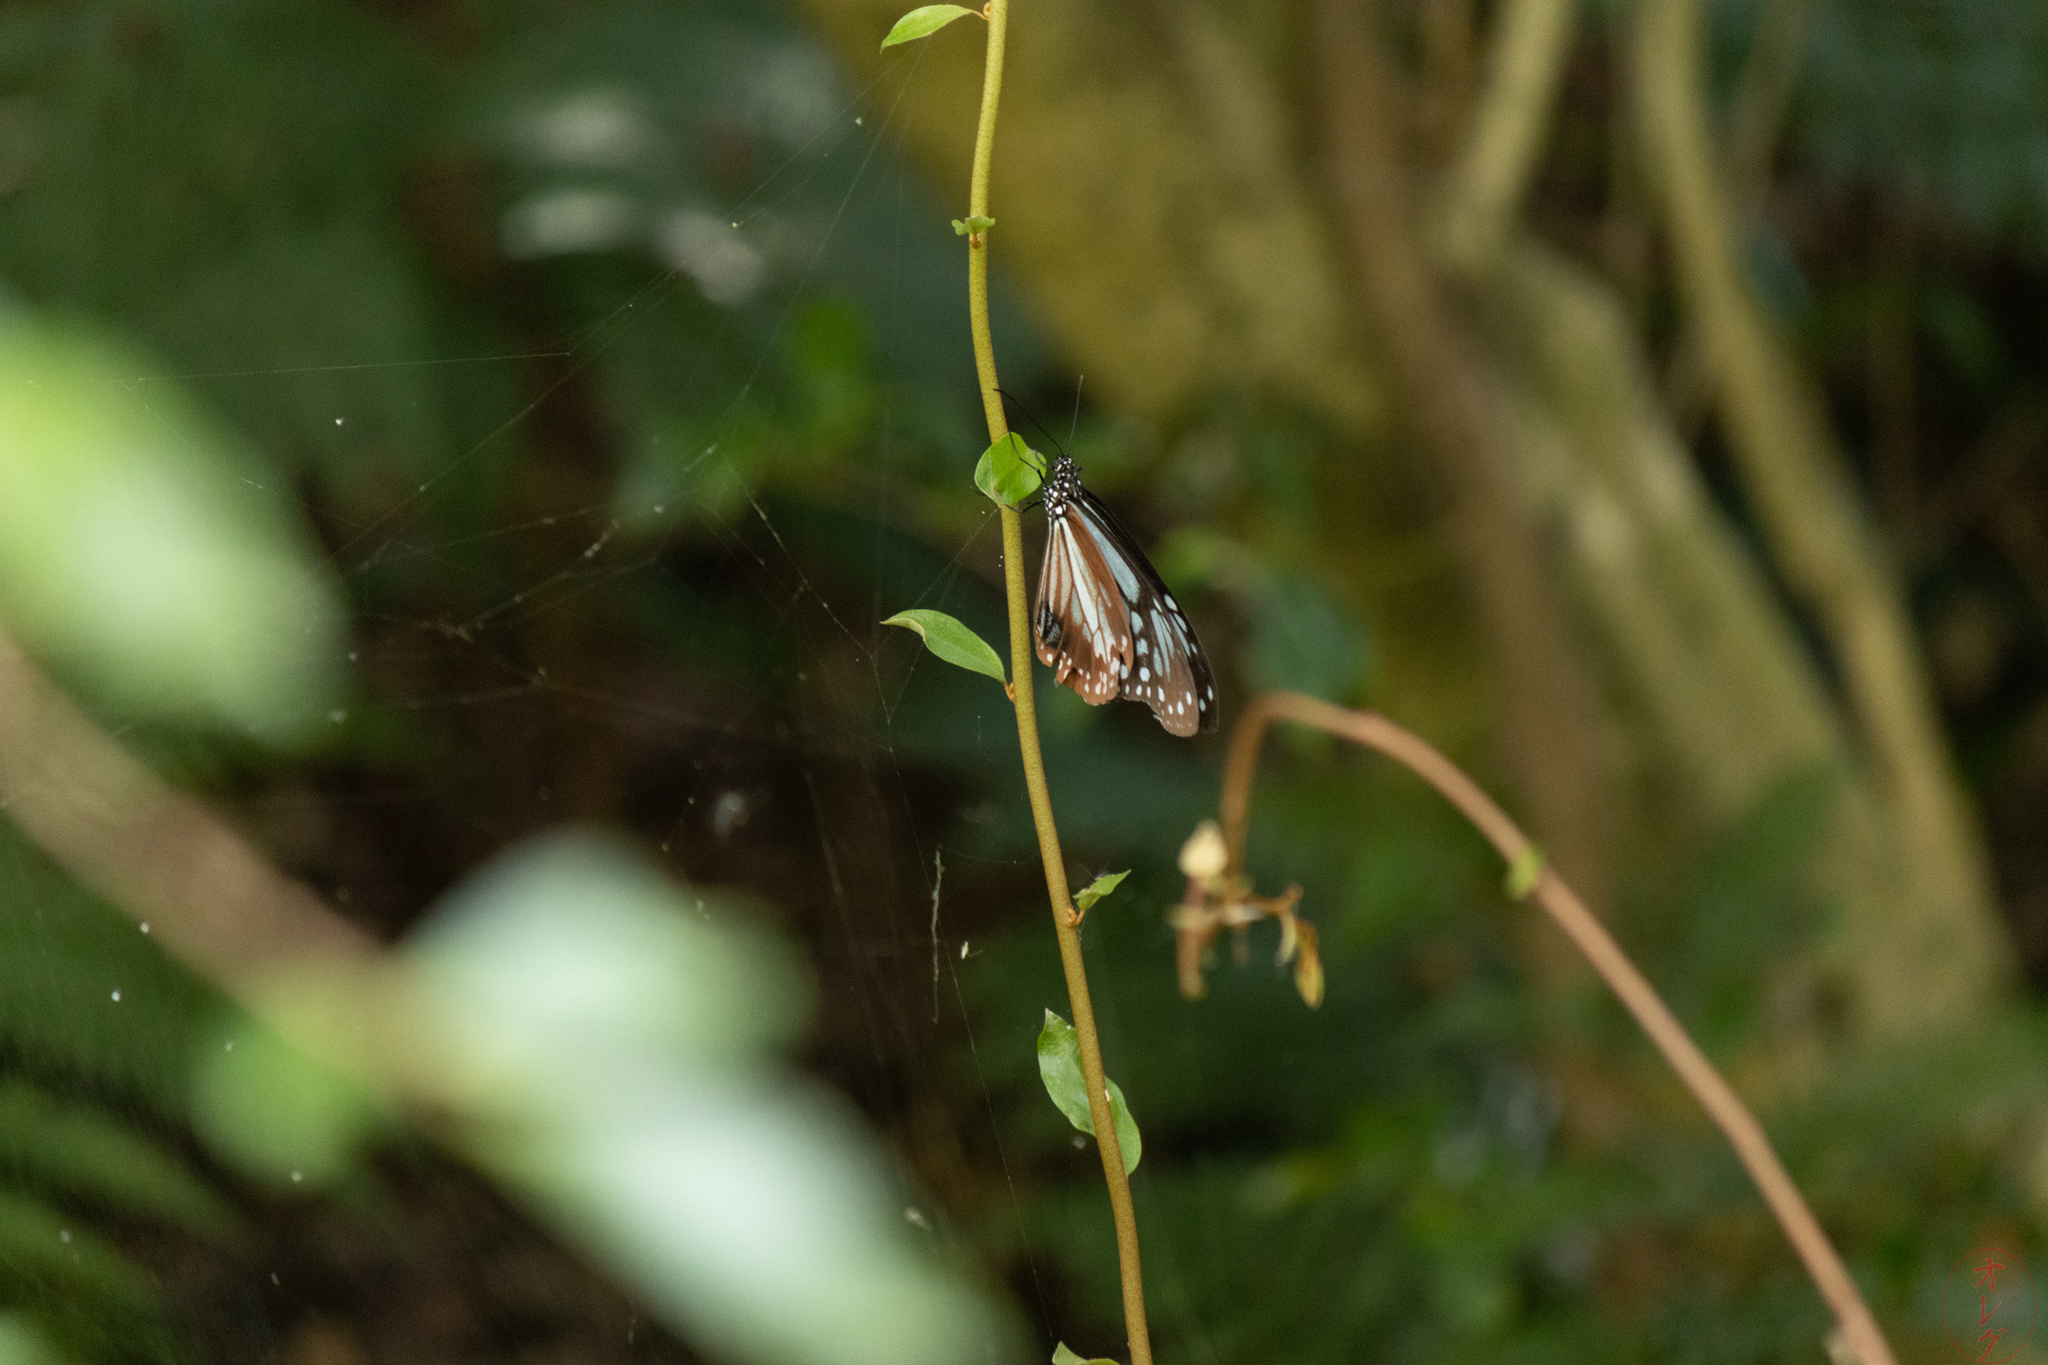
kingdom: Animalia
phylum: Arthropoda
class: Insecta
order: Lepidoptera
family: Nymphalidae
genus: Parantica
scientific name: Parantica sita
